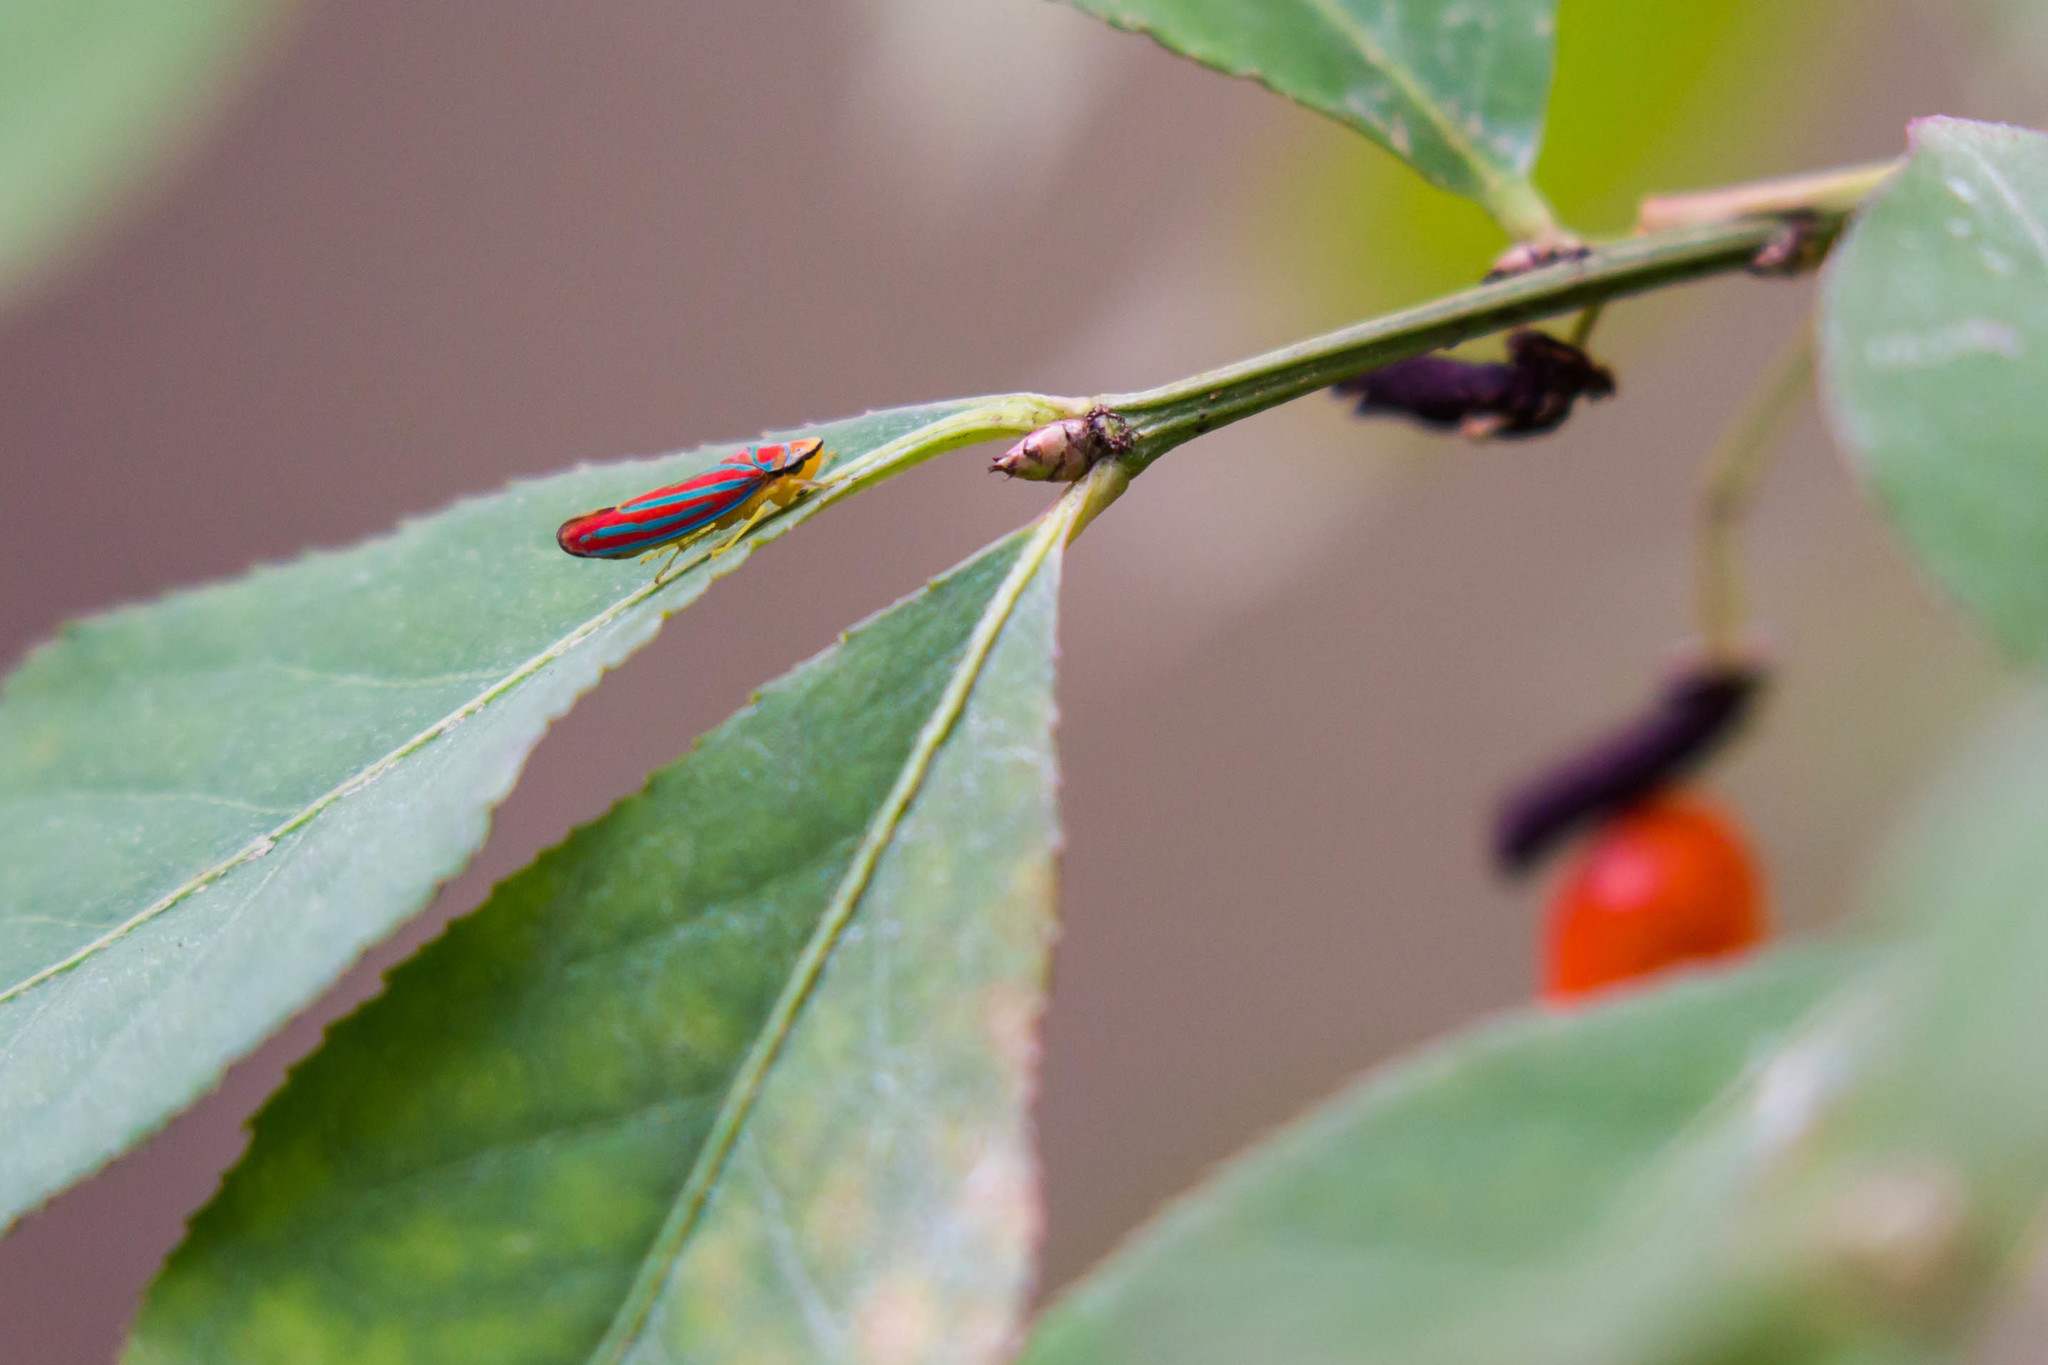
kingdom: Animalia
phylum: Arthropoda
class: Insecta
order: Hemiptera
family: Cicadellidae
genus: Graphocephala
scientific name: Graphocephala coccinea
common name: Candy-striped leafhopper
